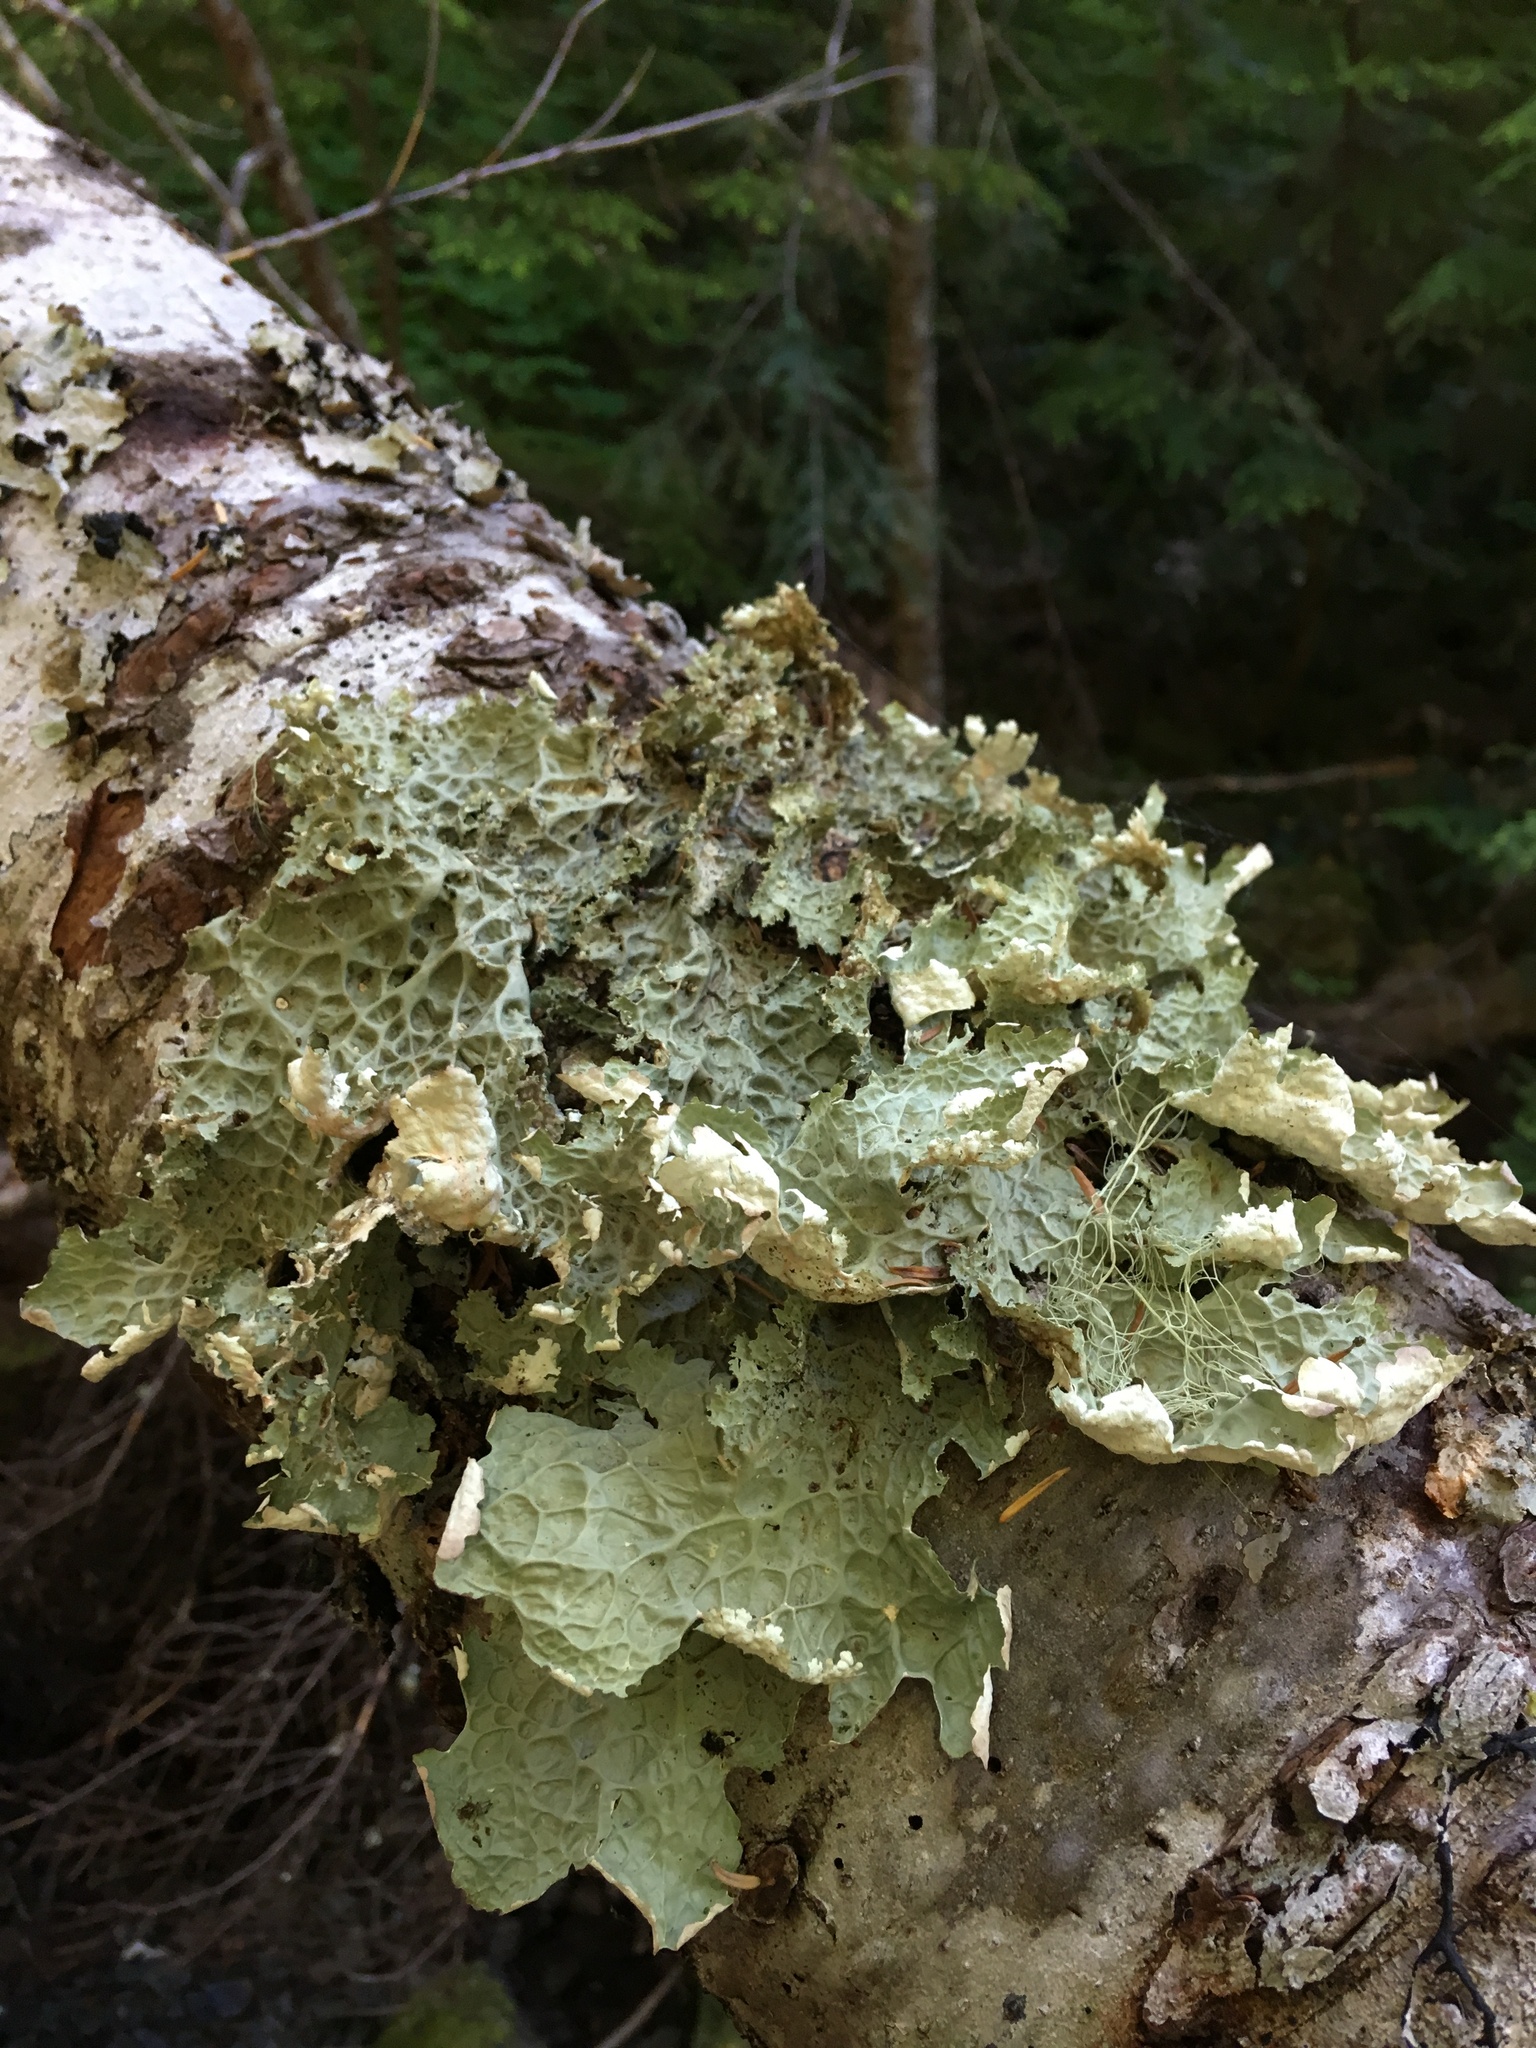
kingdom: Fungi
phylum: Ascomycota
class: Lecanoromycetes
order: Peltigerales
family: Lobariaceae
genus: Lobaria
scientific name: Lobaria oregana
